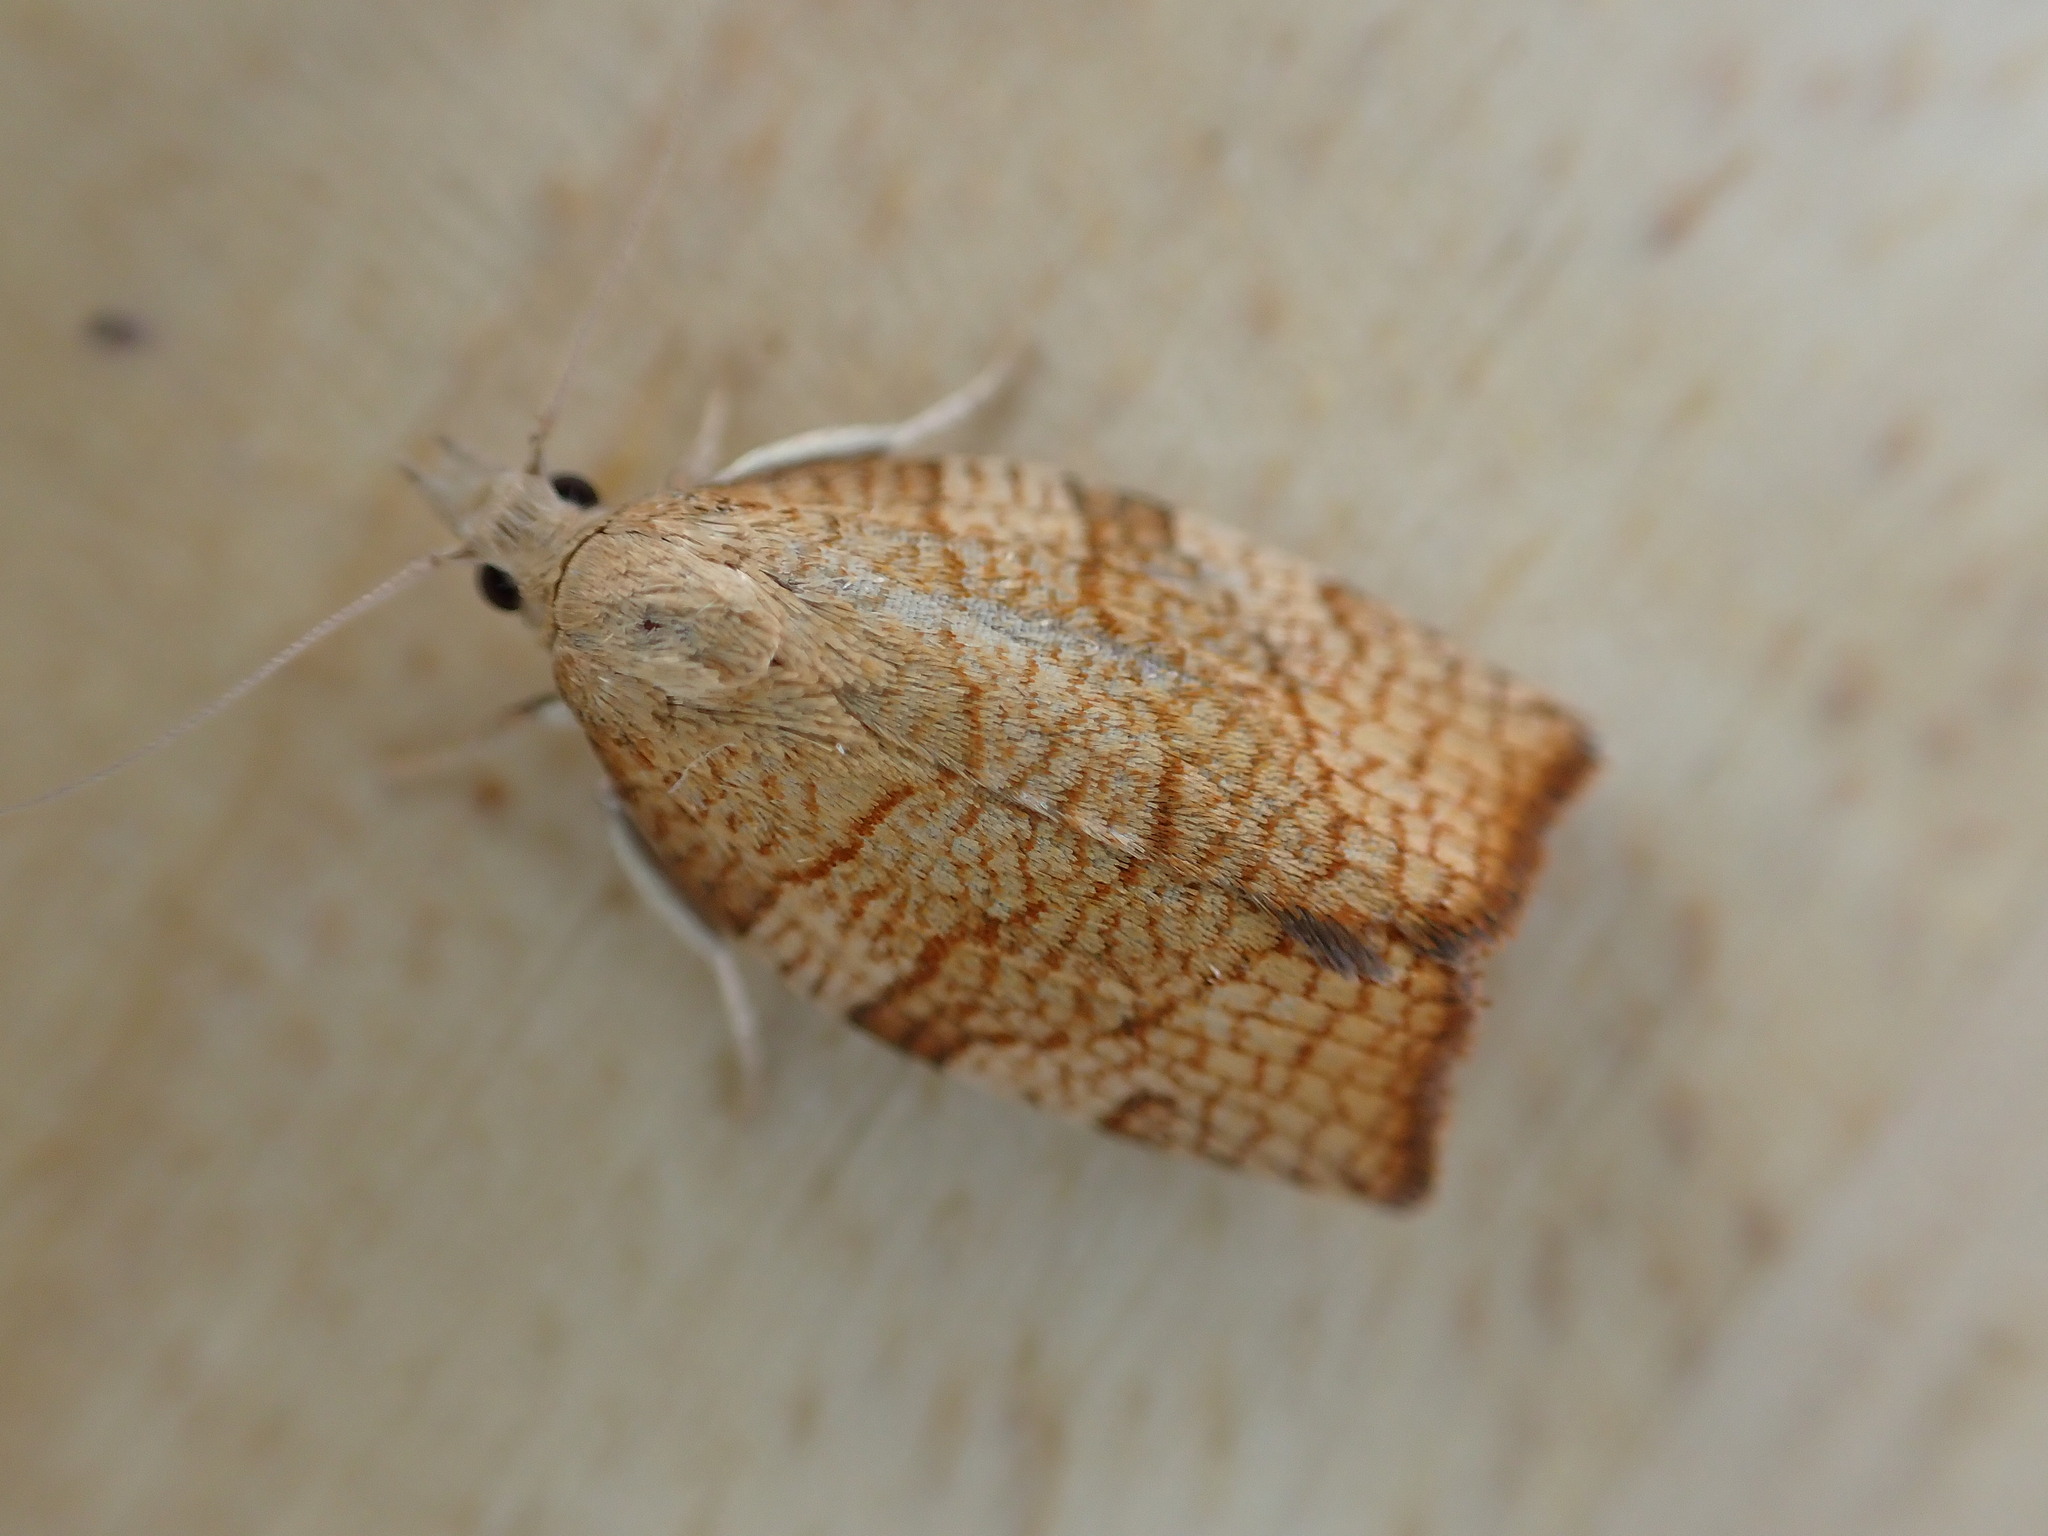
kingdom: Animalia
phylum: Arthropoda
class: Insecta
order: Lepidoptera
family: Tortricidae
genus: Pandemis
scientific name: Pandemis corylana
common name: Chequered fruit-tree tortrix
